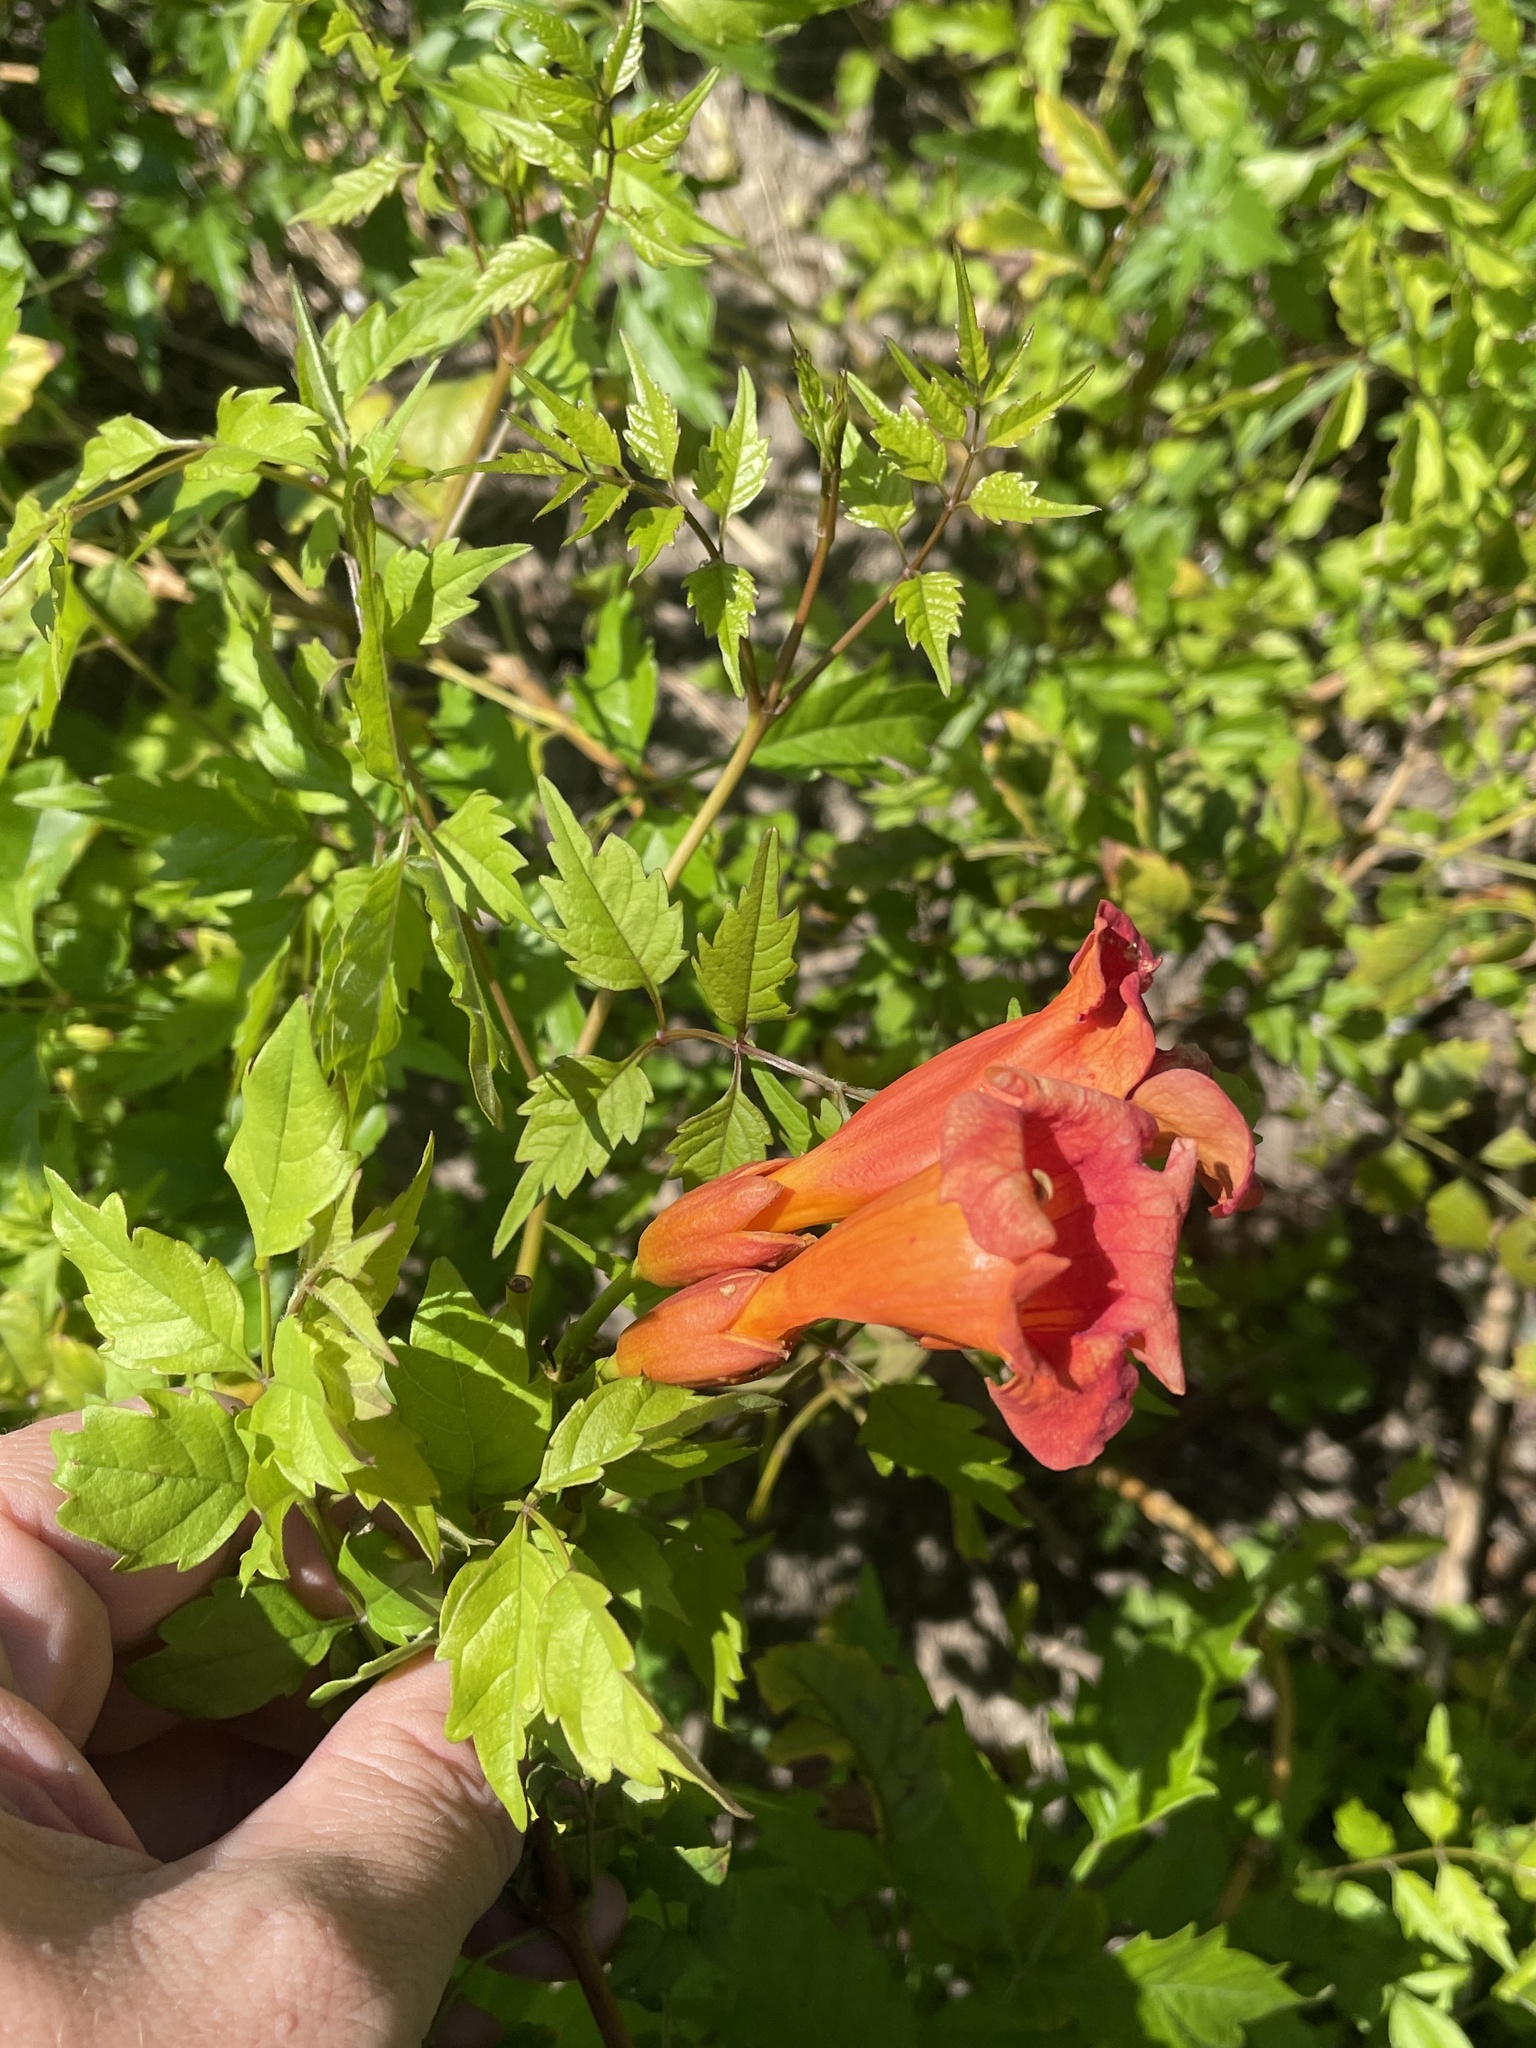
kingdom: Plantae
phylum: Tracheophyta
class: Magnoliopsida
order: Lamiales
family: Bignoniaceae
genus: Campsis
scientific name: Campsis radicans
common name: Trumpet-creeper
